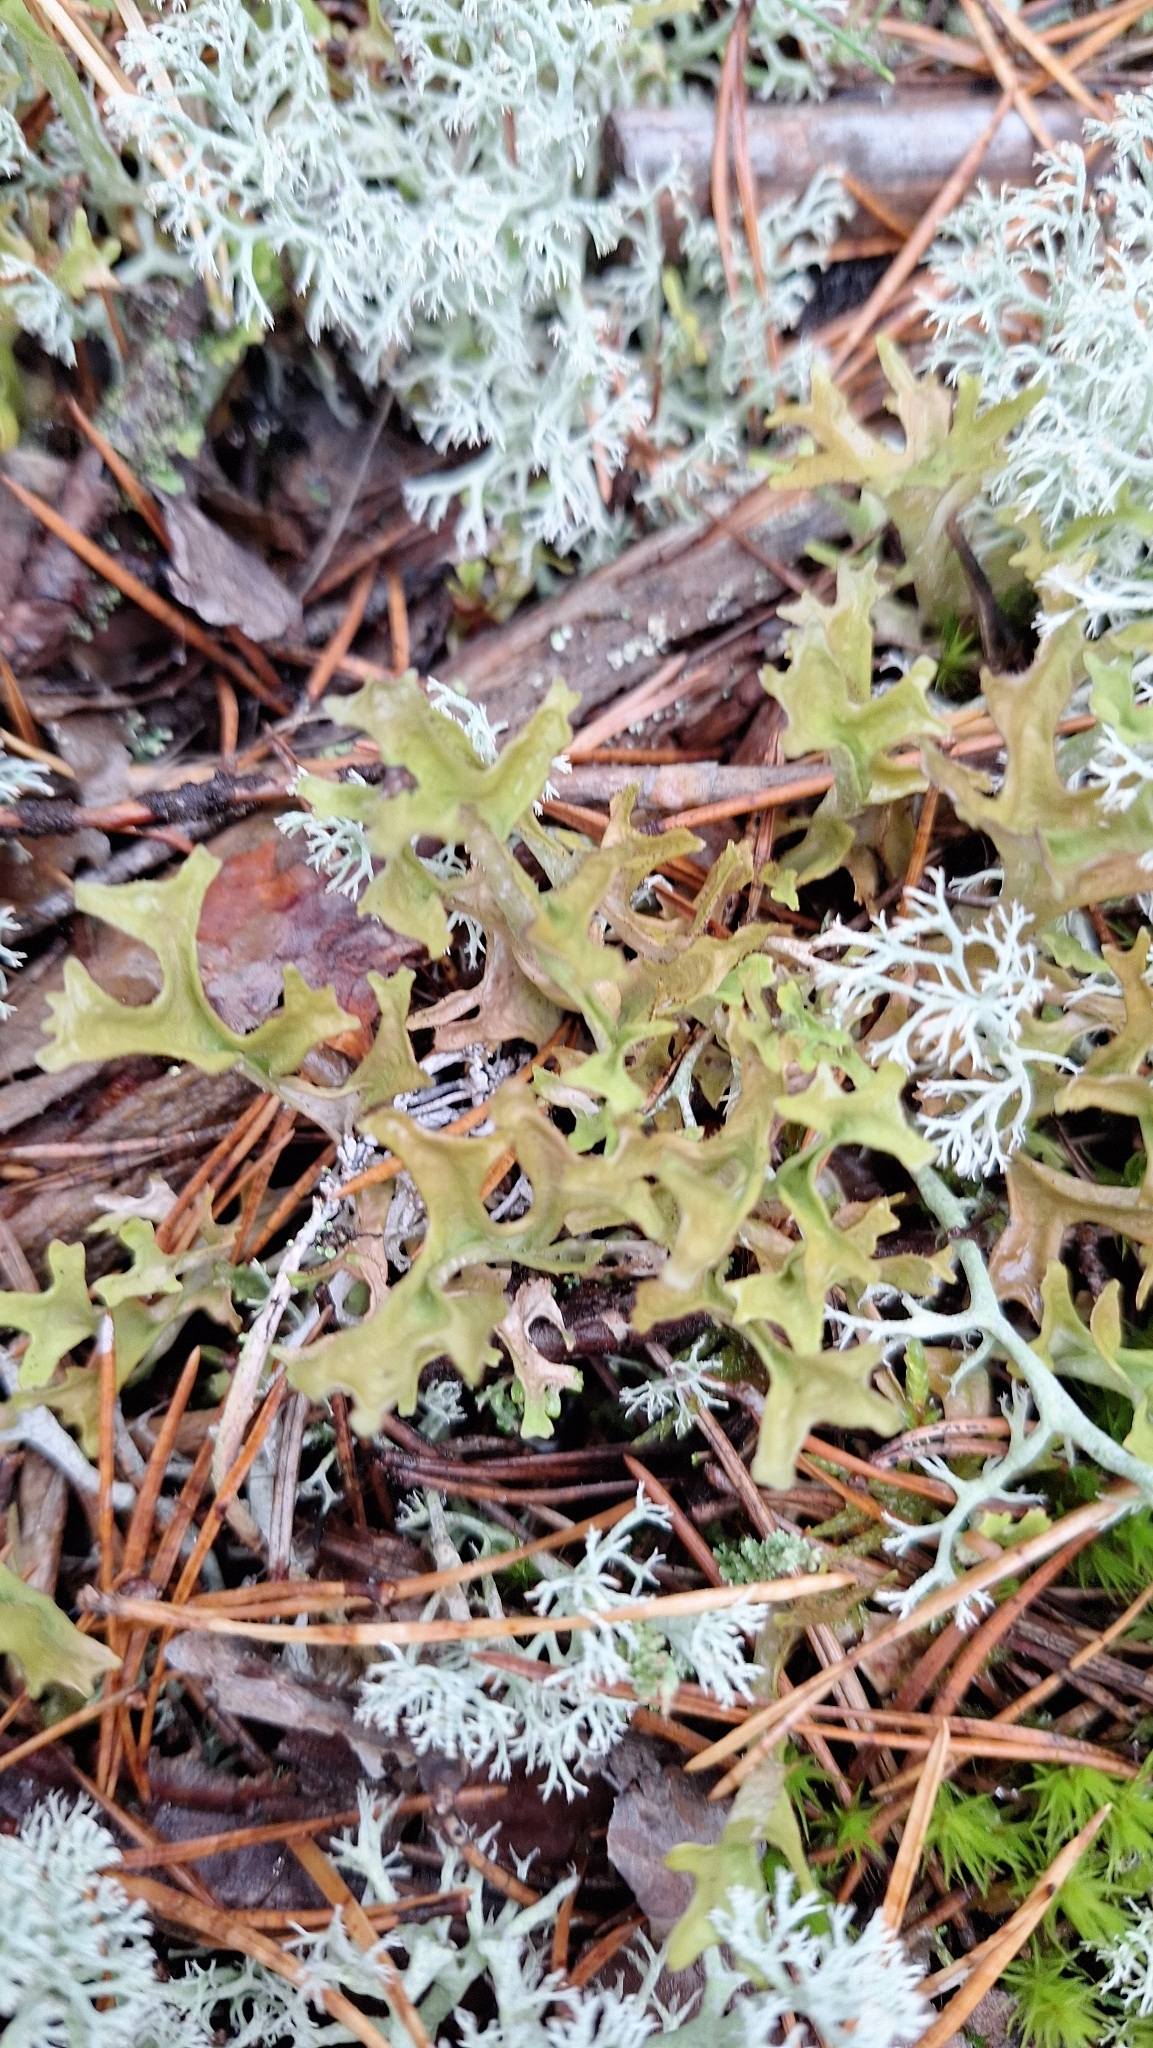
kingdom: Fungi
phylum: Ascomycota
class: Lecanoromycetes
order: Lecanorales
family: Parmeliaceae
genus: Cetraria
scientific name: Cetraria islandica
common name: Iceland lichen
